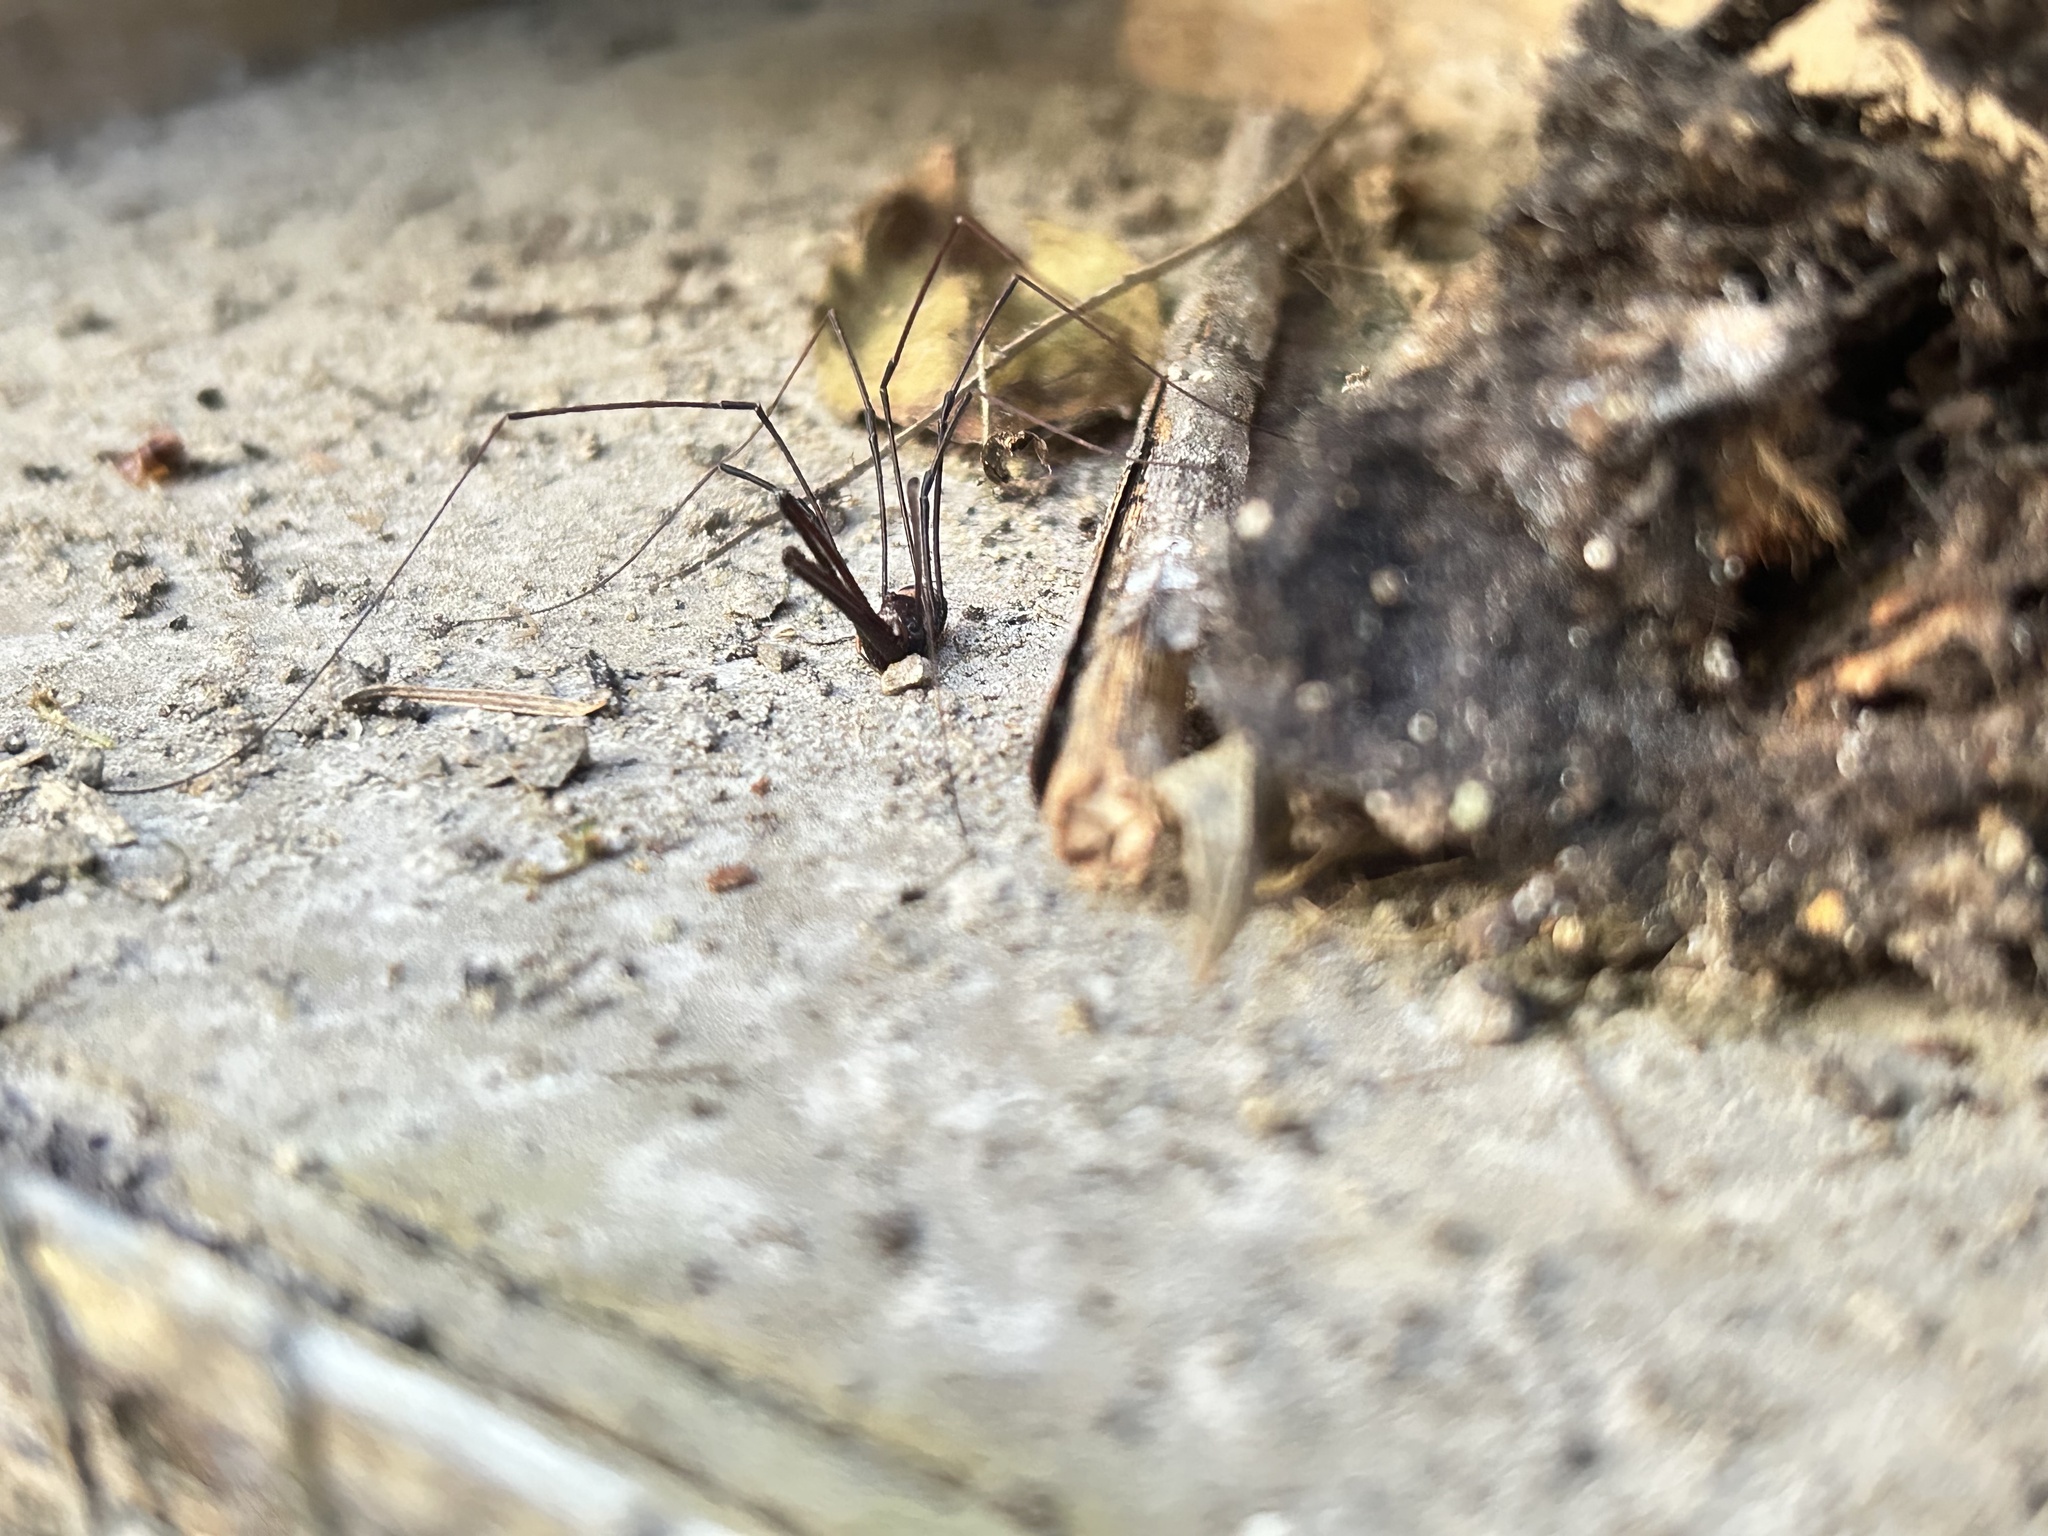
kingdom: Animalia
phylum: Arthropoda
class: Arachnida
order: Opiliones
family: Neopilionidae
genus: Pantopsalis
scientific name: Pantopsalis coronata
